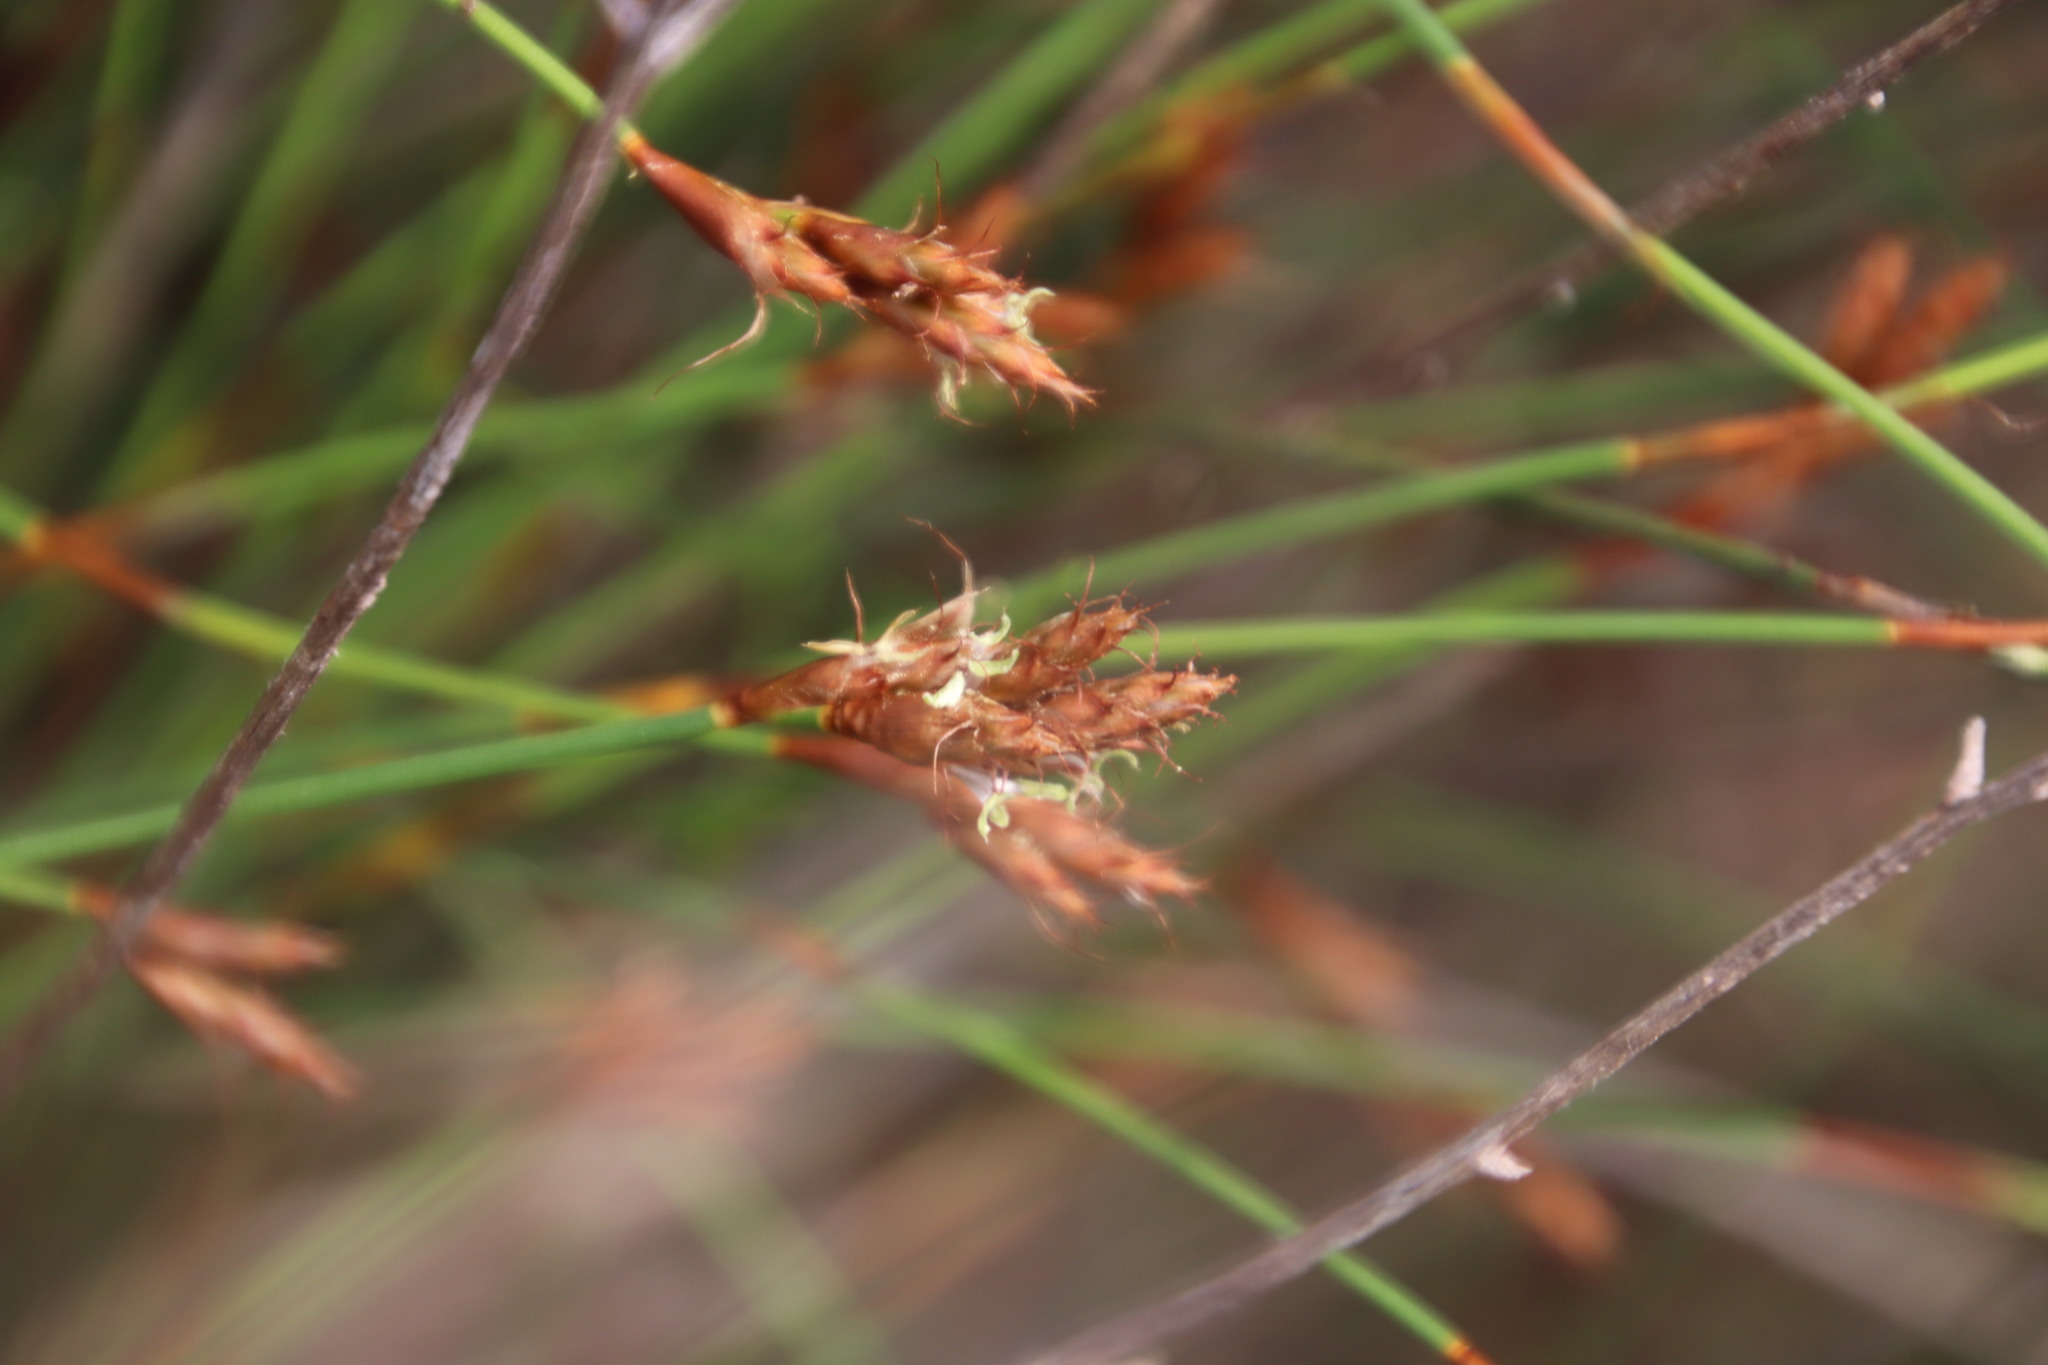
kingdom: Plantae
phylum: Tracheophyta
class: Liliopsida
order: Poales
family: Restionaceae
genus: Restio
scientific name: Restio capensis
